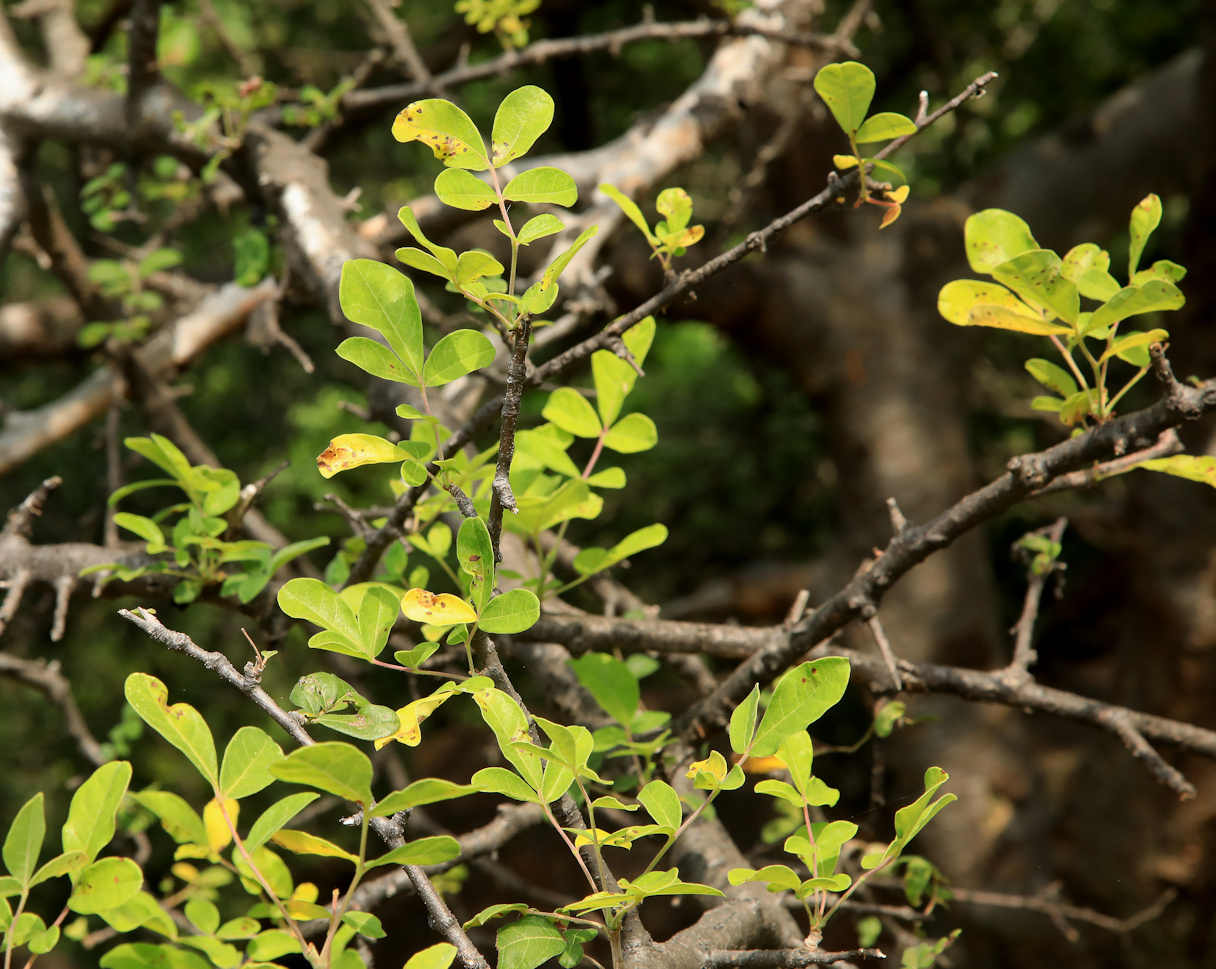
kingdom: Plantae
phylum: Tracheophyta
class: Magnoliopsida
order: Sapindales
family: Burseraceae
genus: Commiphora
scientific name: Commiphora mollis
